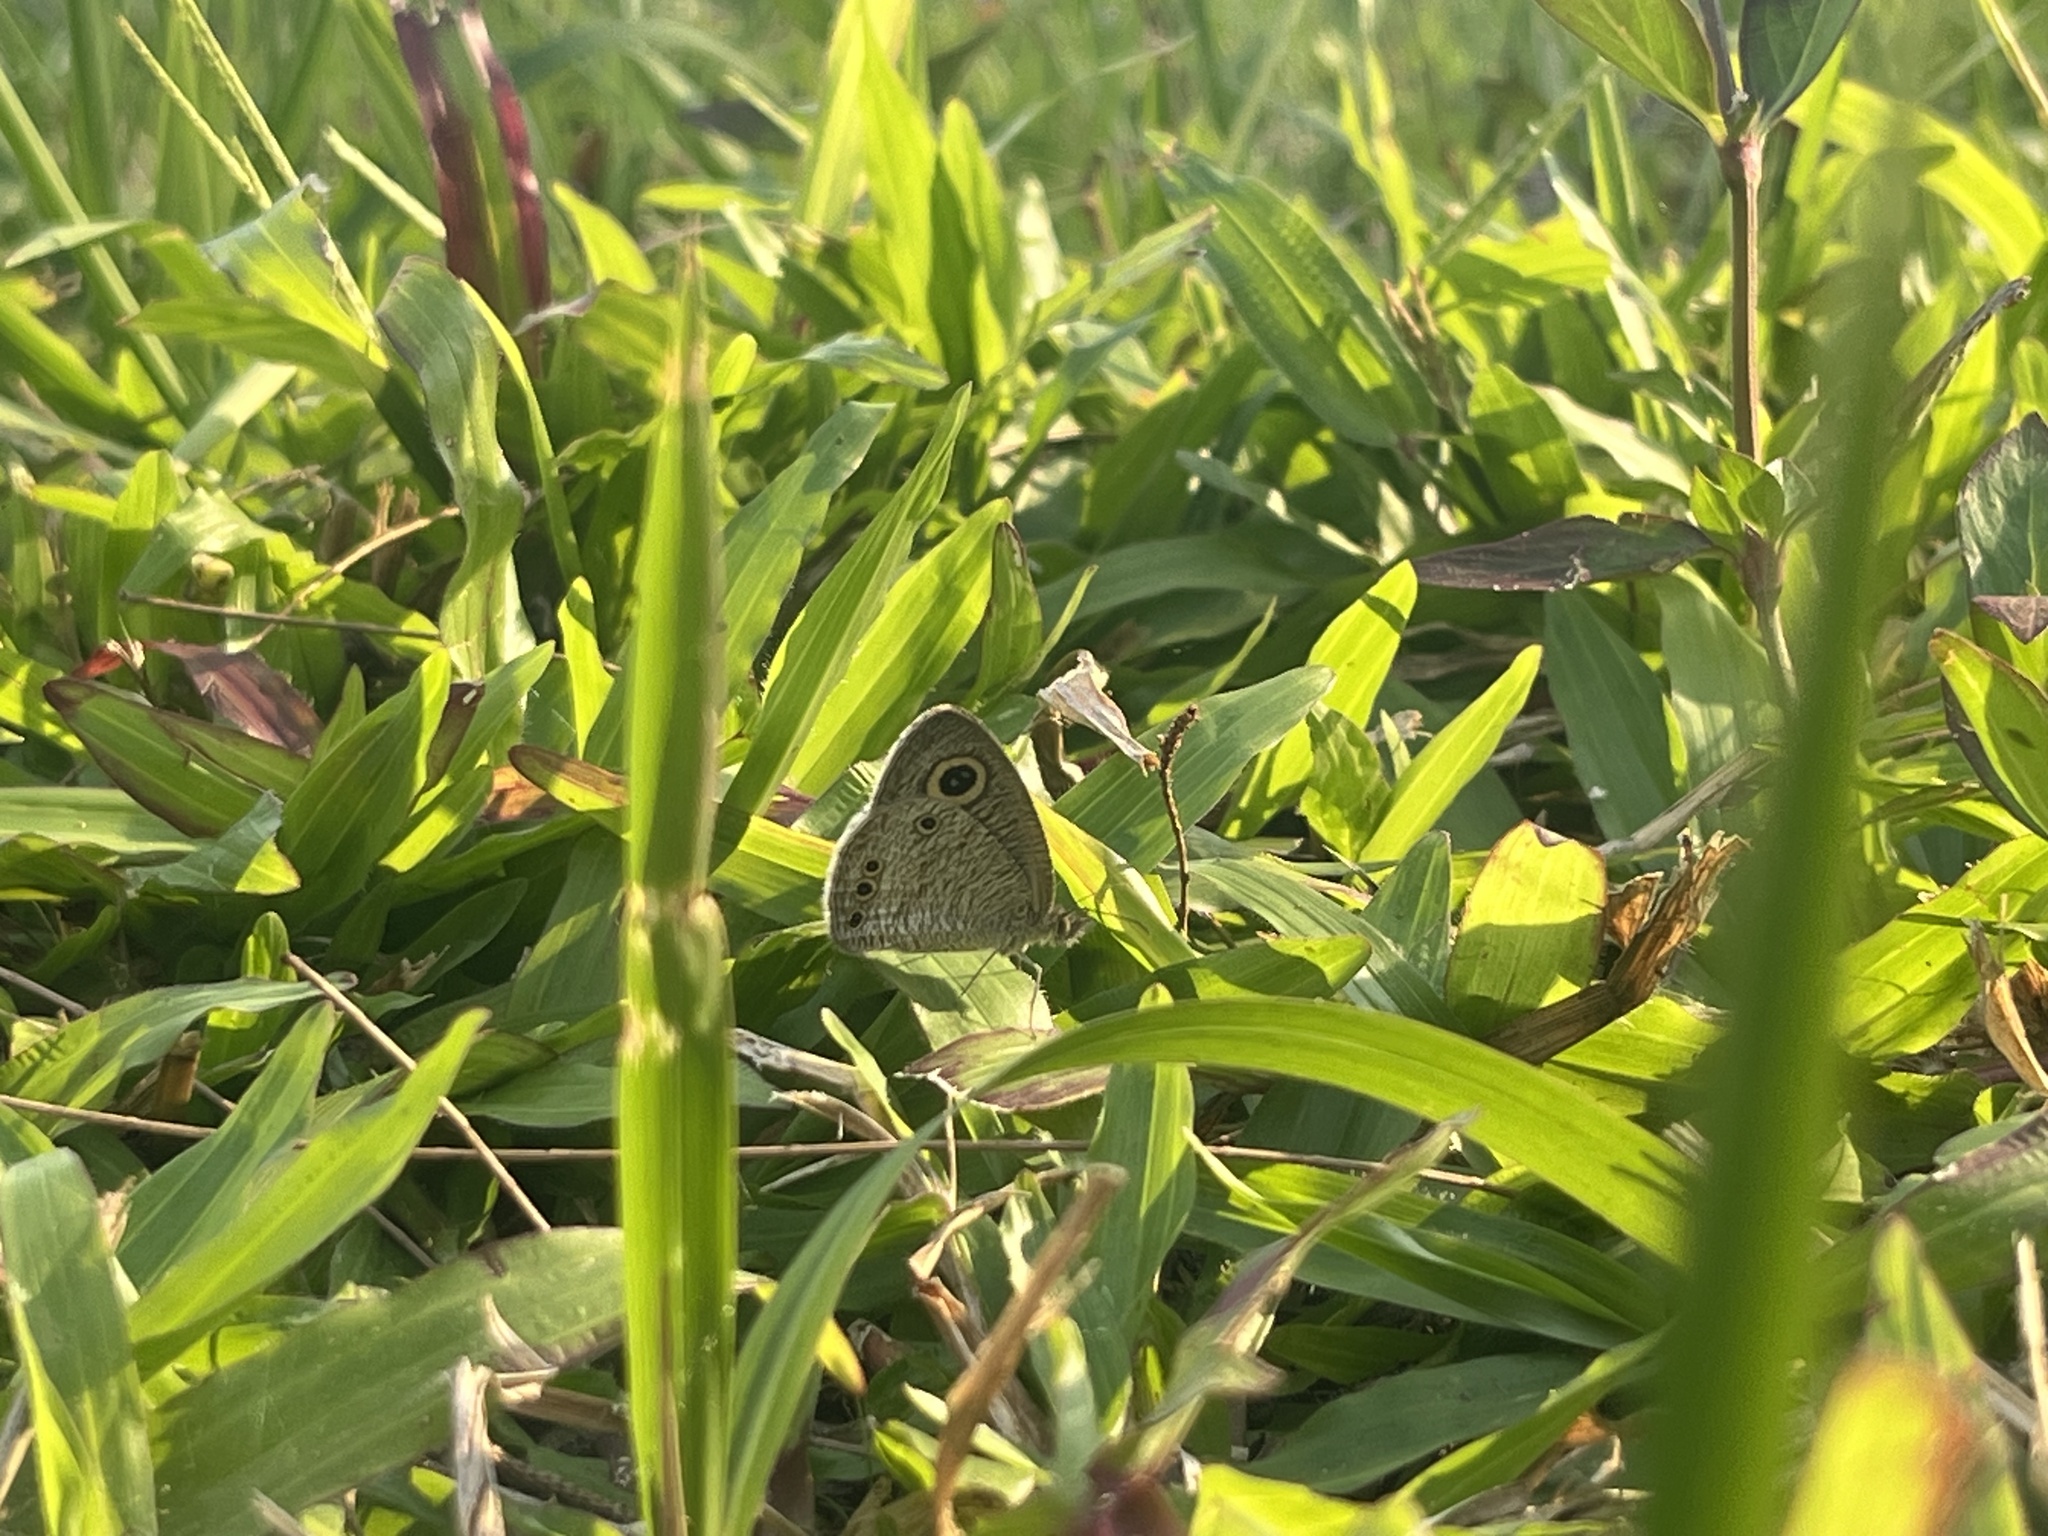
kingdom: Animalia
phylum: Arthropoda
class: Insecta
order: Lepidoptera
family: Nymphalidae
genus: Ypthima
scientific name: Ypthima huebneri
